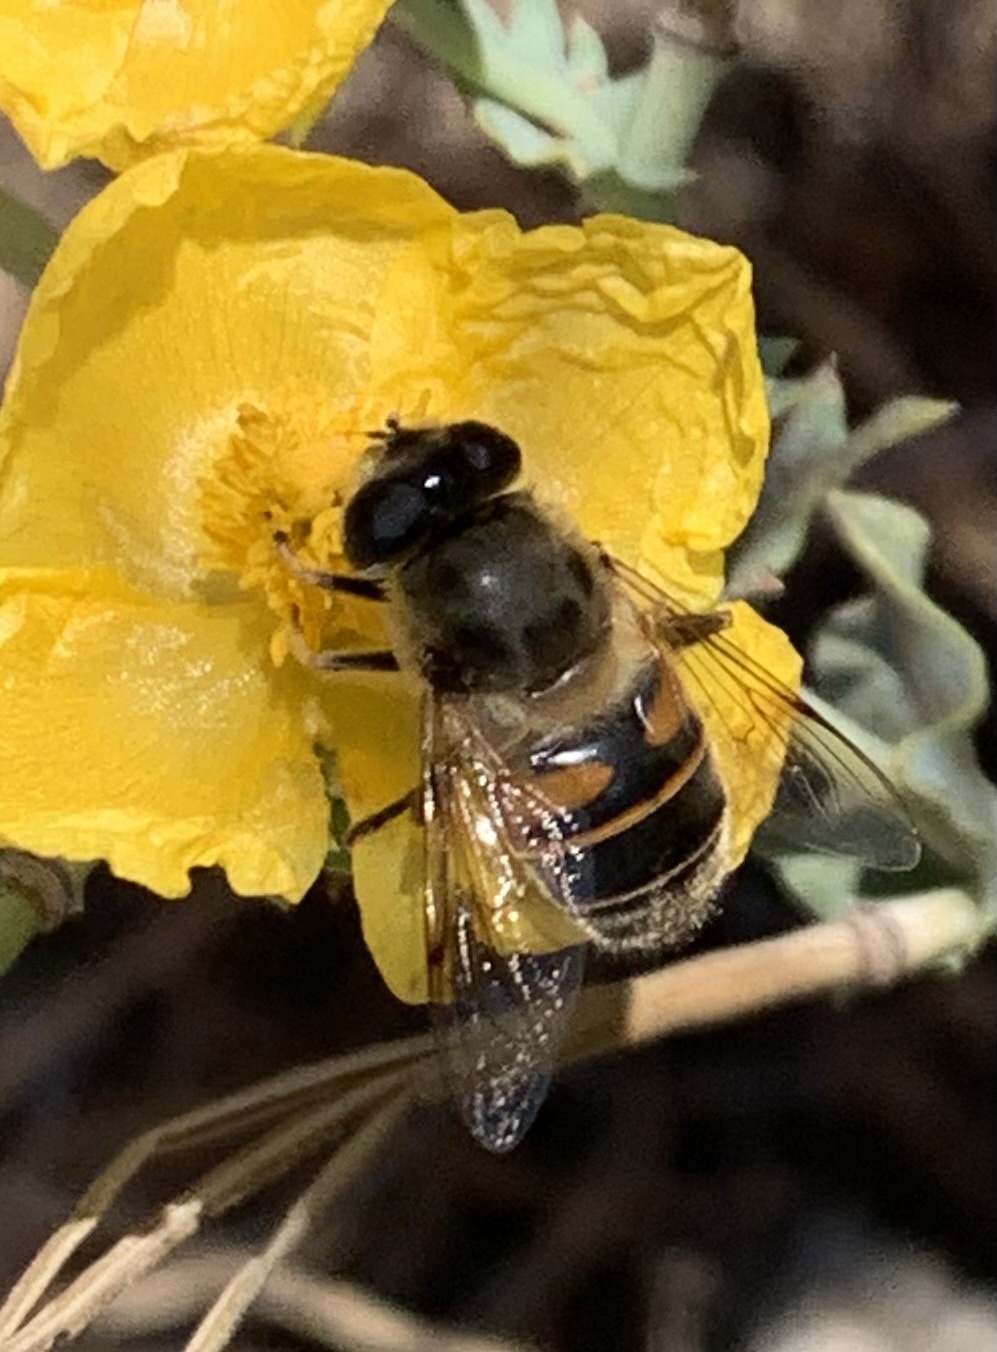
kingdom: Animalia
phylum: Arthropoda
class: Insecta
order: Diptera
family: Syrphidae
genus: Eristalis
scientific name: Eristalis tenax
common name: Drone fly
